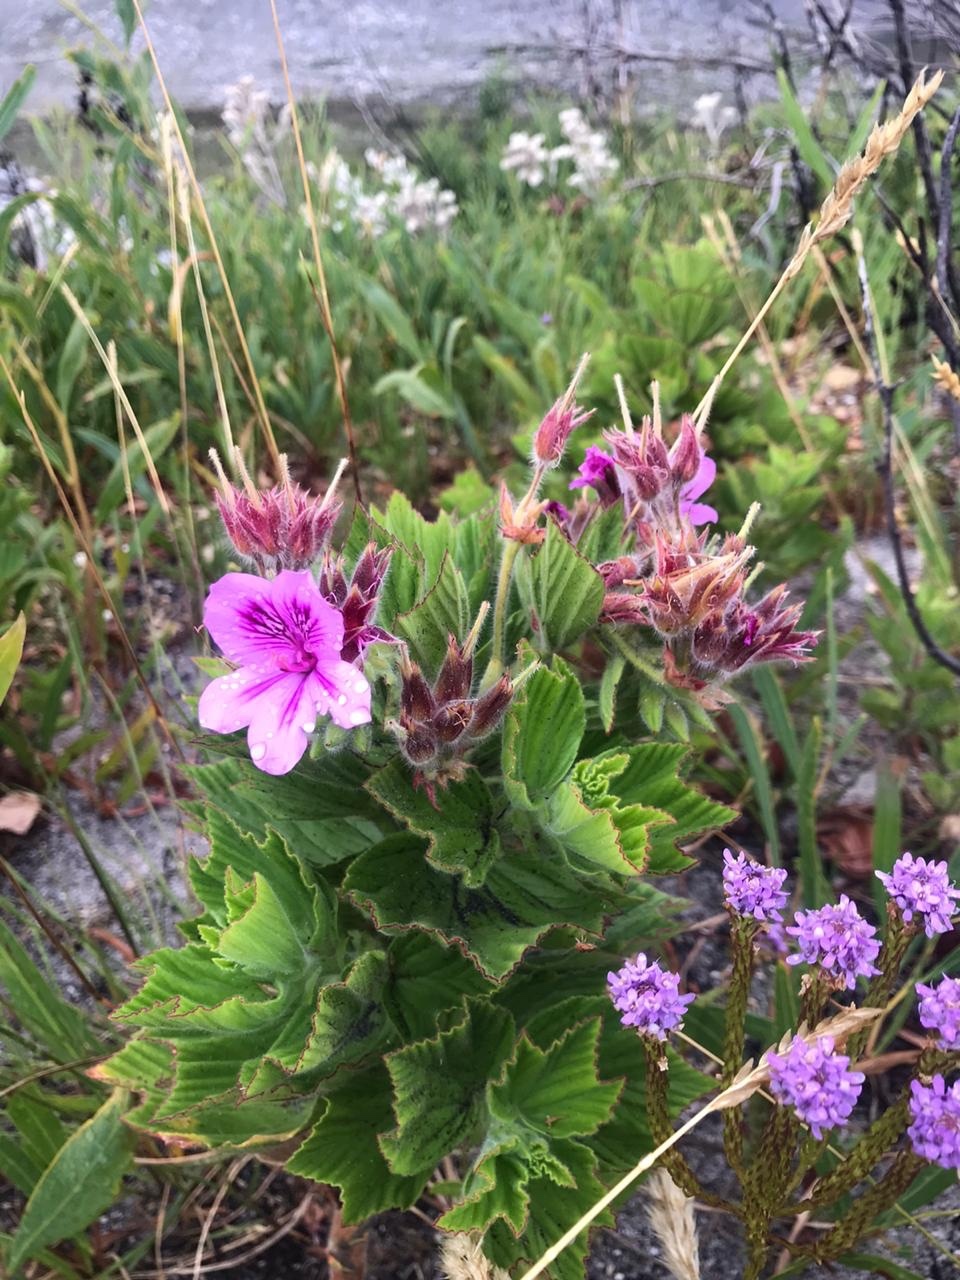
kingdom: Plantae
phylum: Tracheophyta
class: Magnoliopsida
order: Geraniales
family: Geraniaceae
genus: Pelargonium
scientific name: Pelargonium cucullatum
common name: Tree pelargonium
